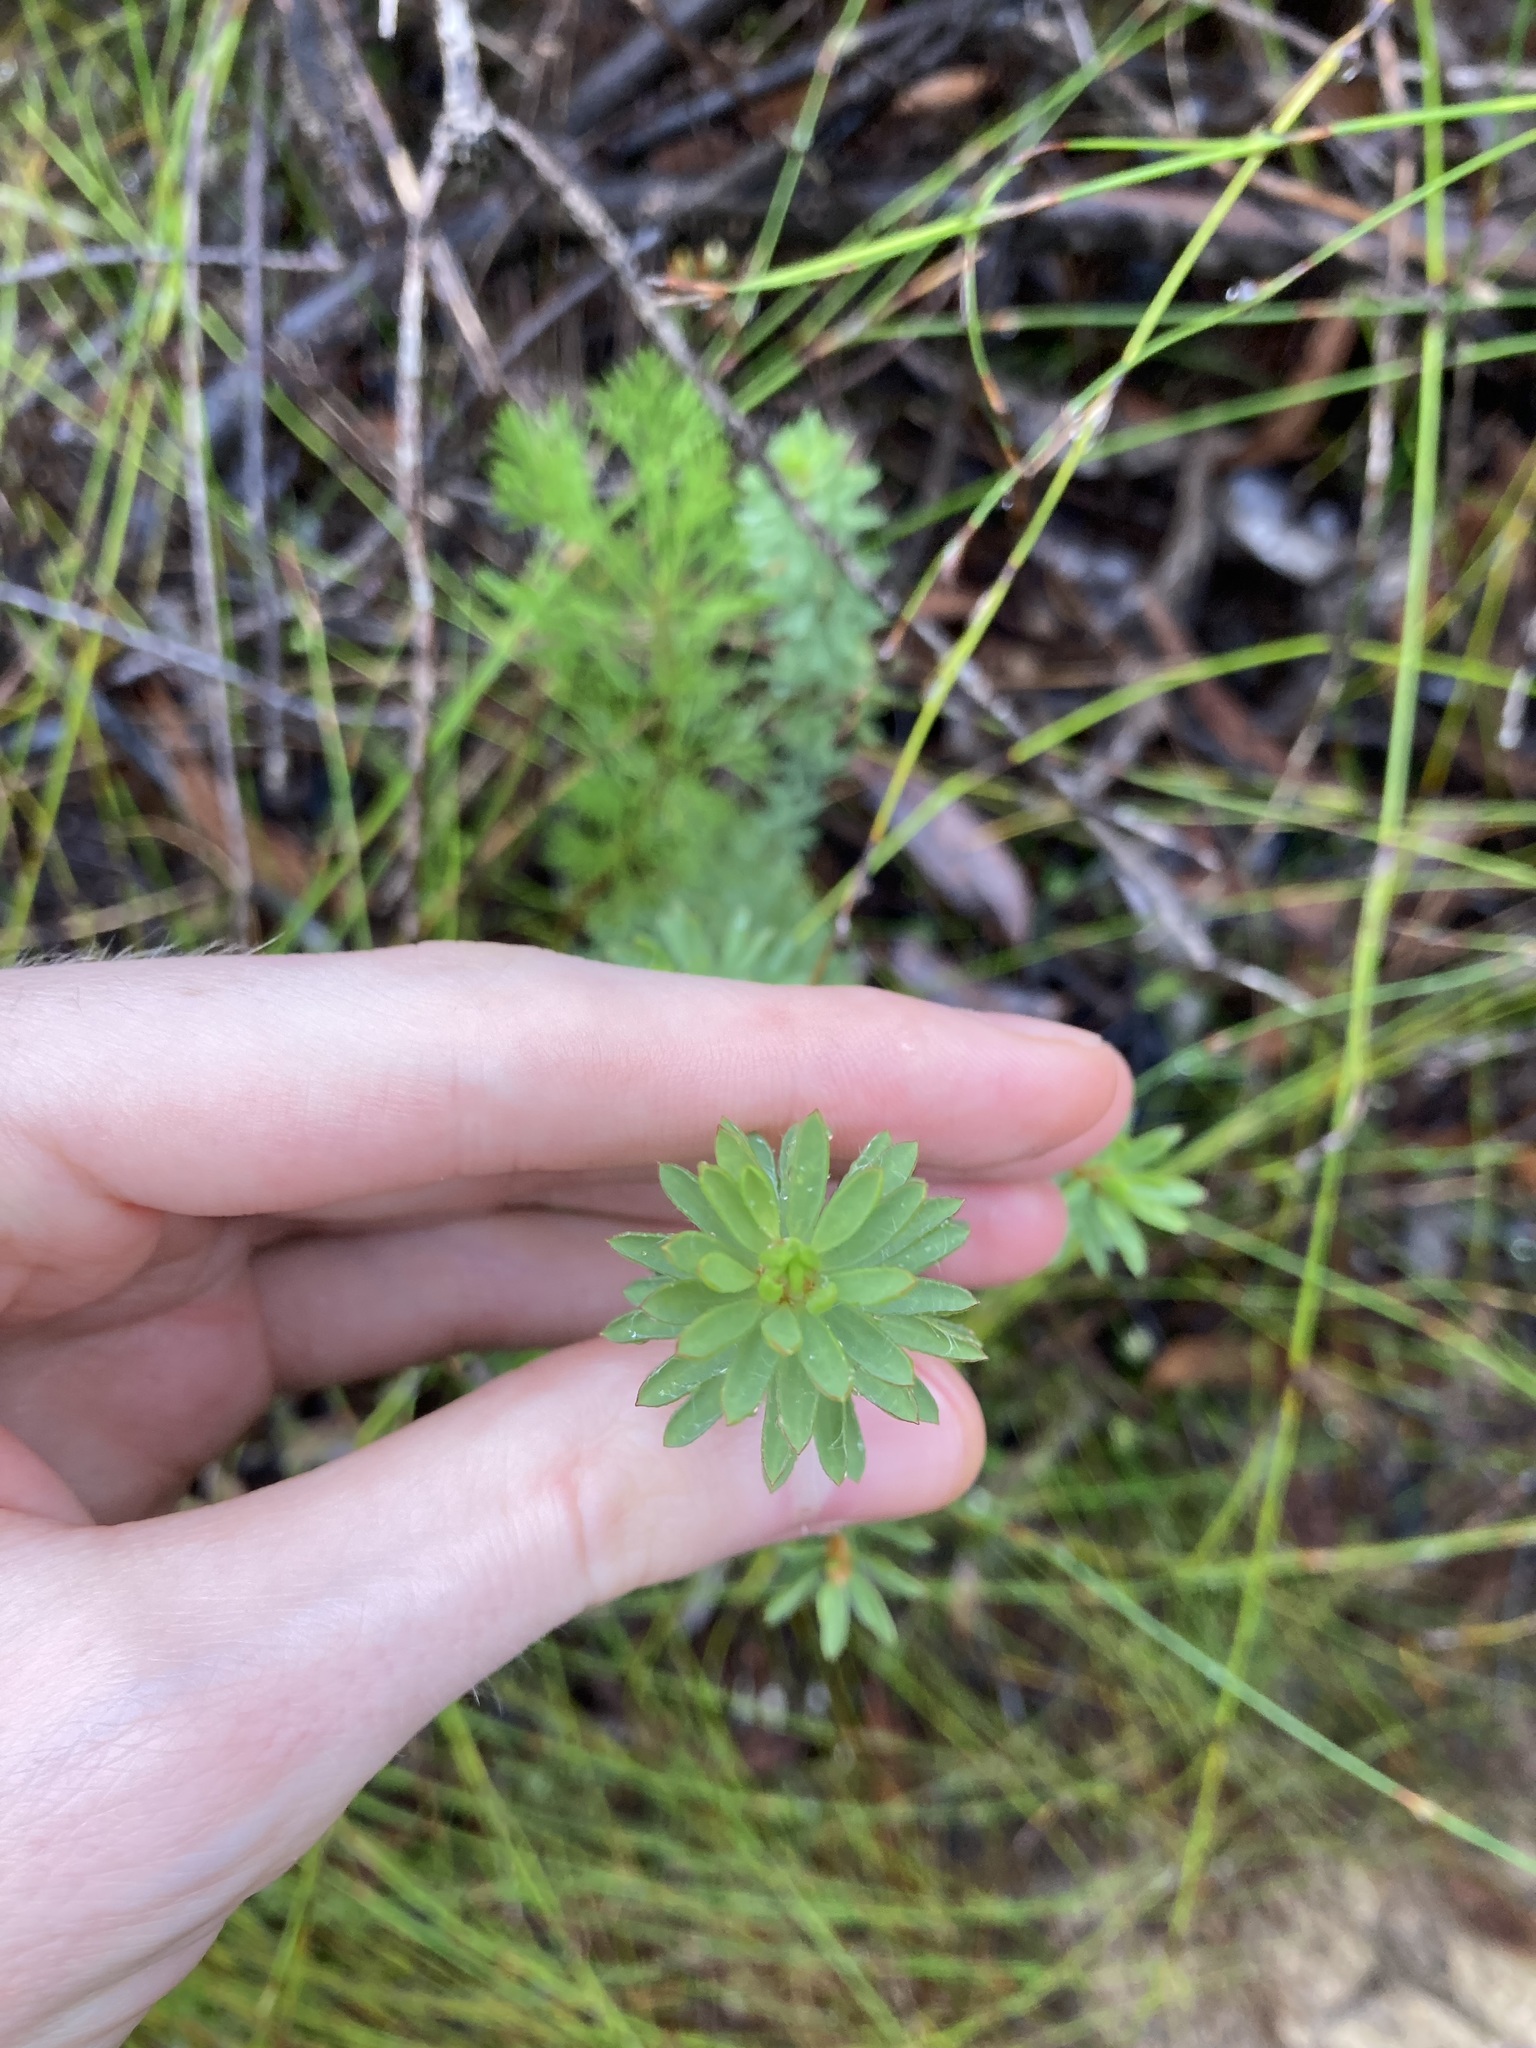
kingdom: Plantae
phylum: Tracheophyta
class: Magnoliopsida
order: Fabales
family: Fabaceae
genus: Pultenaea
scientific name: Pultenaea tuberculata
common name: Wreath bush-pea
